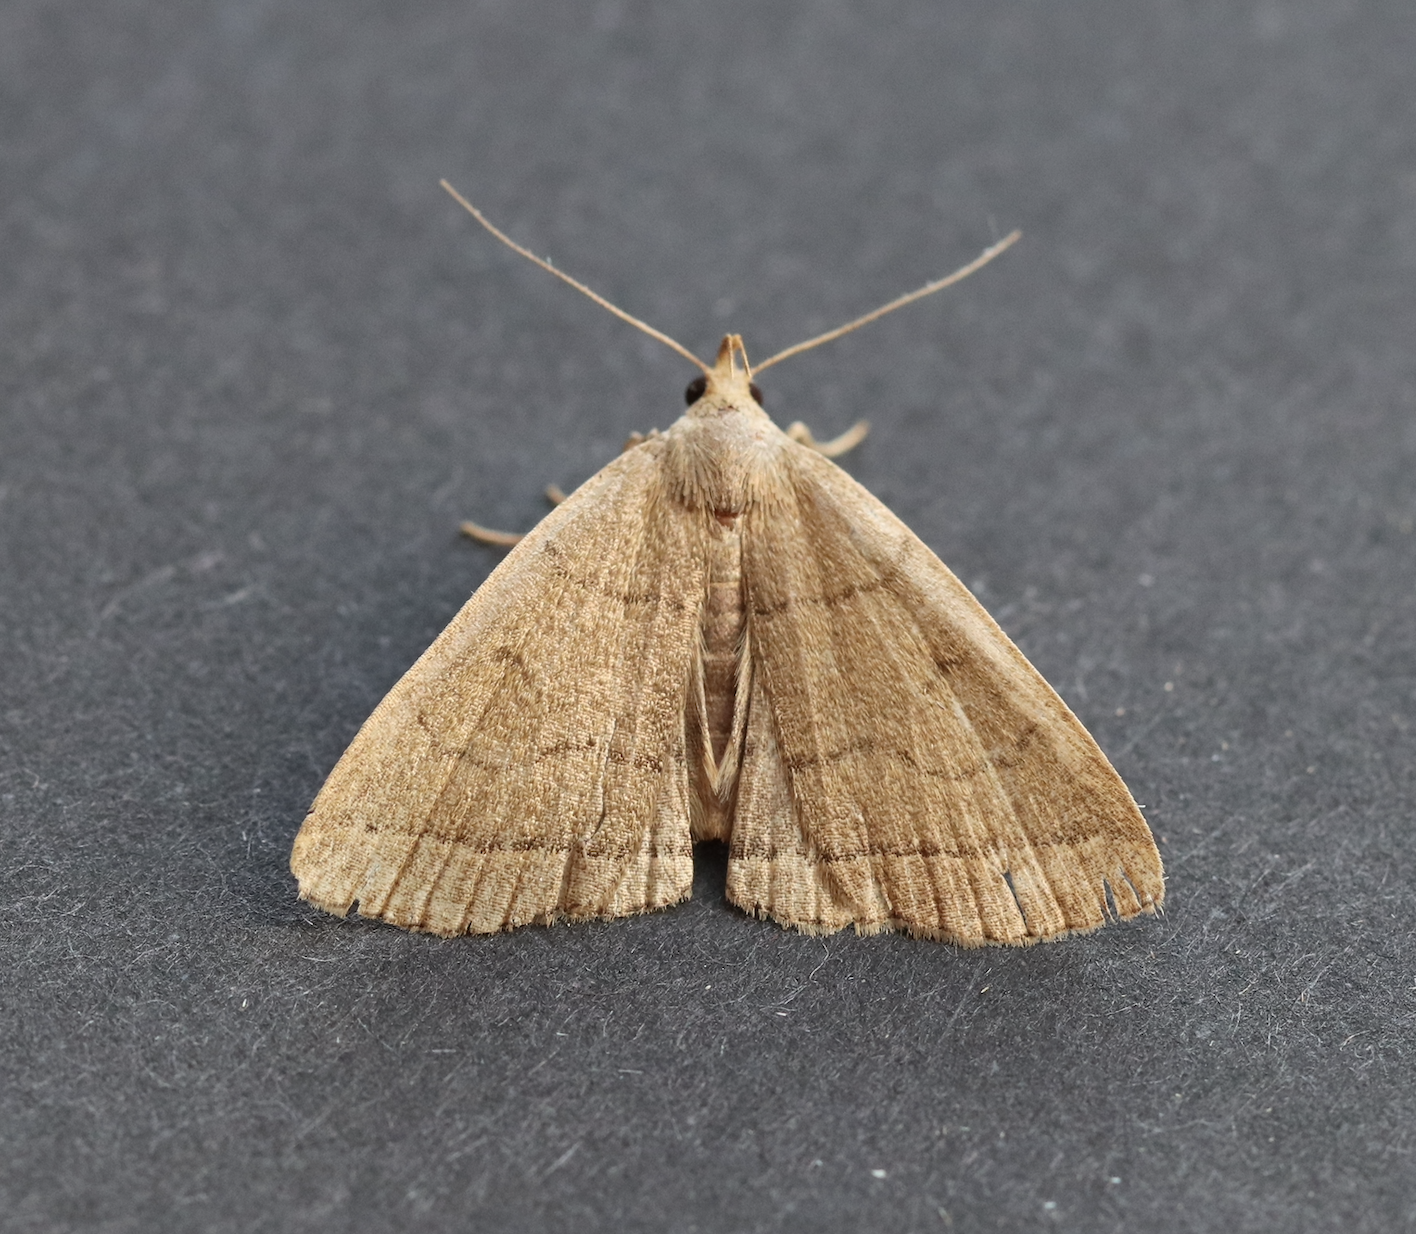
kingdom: Animalia
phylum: Arthropoda
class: Insecta
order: Lepidoptera
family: Erebidae
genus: Herminia
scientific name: Herminia tarsipennalis
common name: Fan-foot
